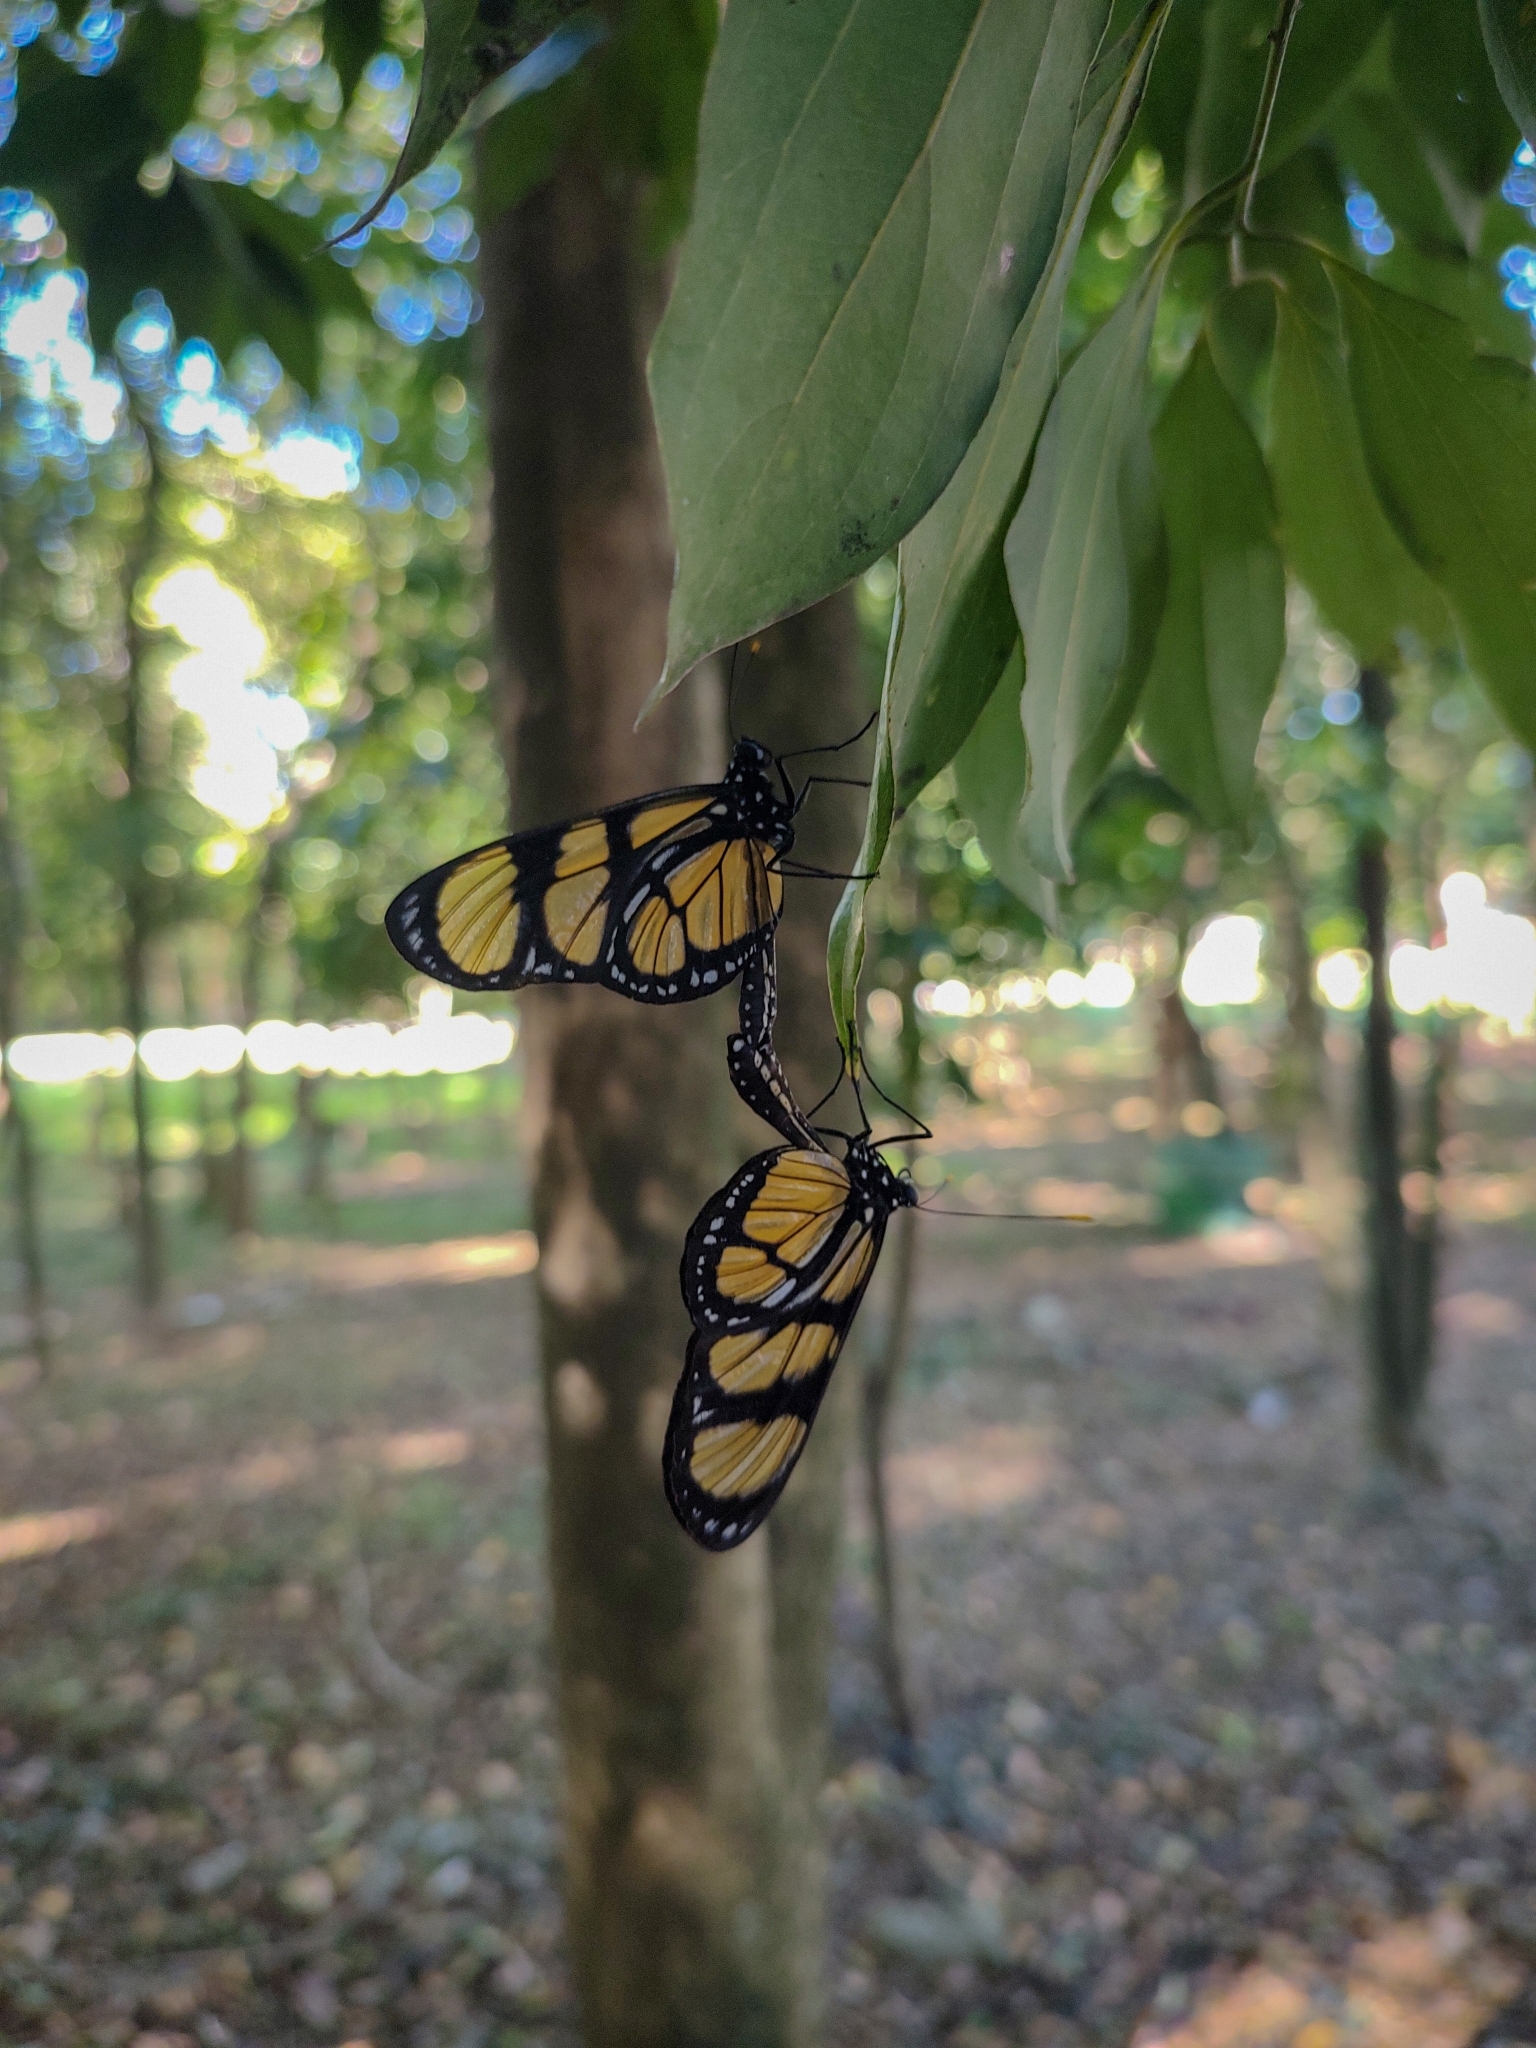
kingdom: Animalia
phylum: Arthropoda
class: Insecta
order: Lepidoptera
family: Nymphalidae
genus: Methona
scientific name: Methona themisto
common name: Themisto amberwing
